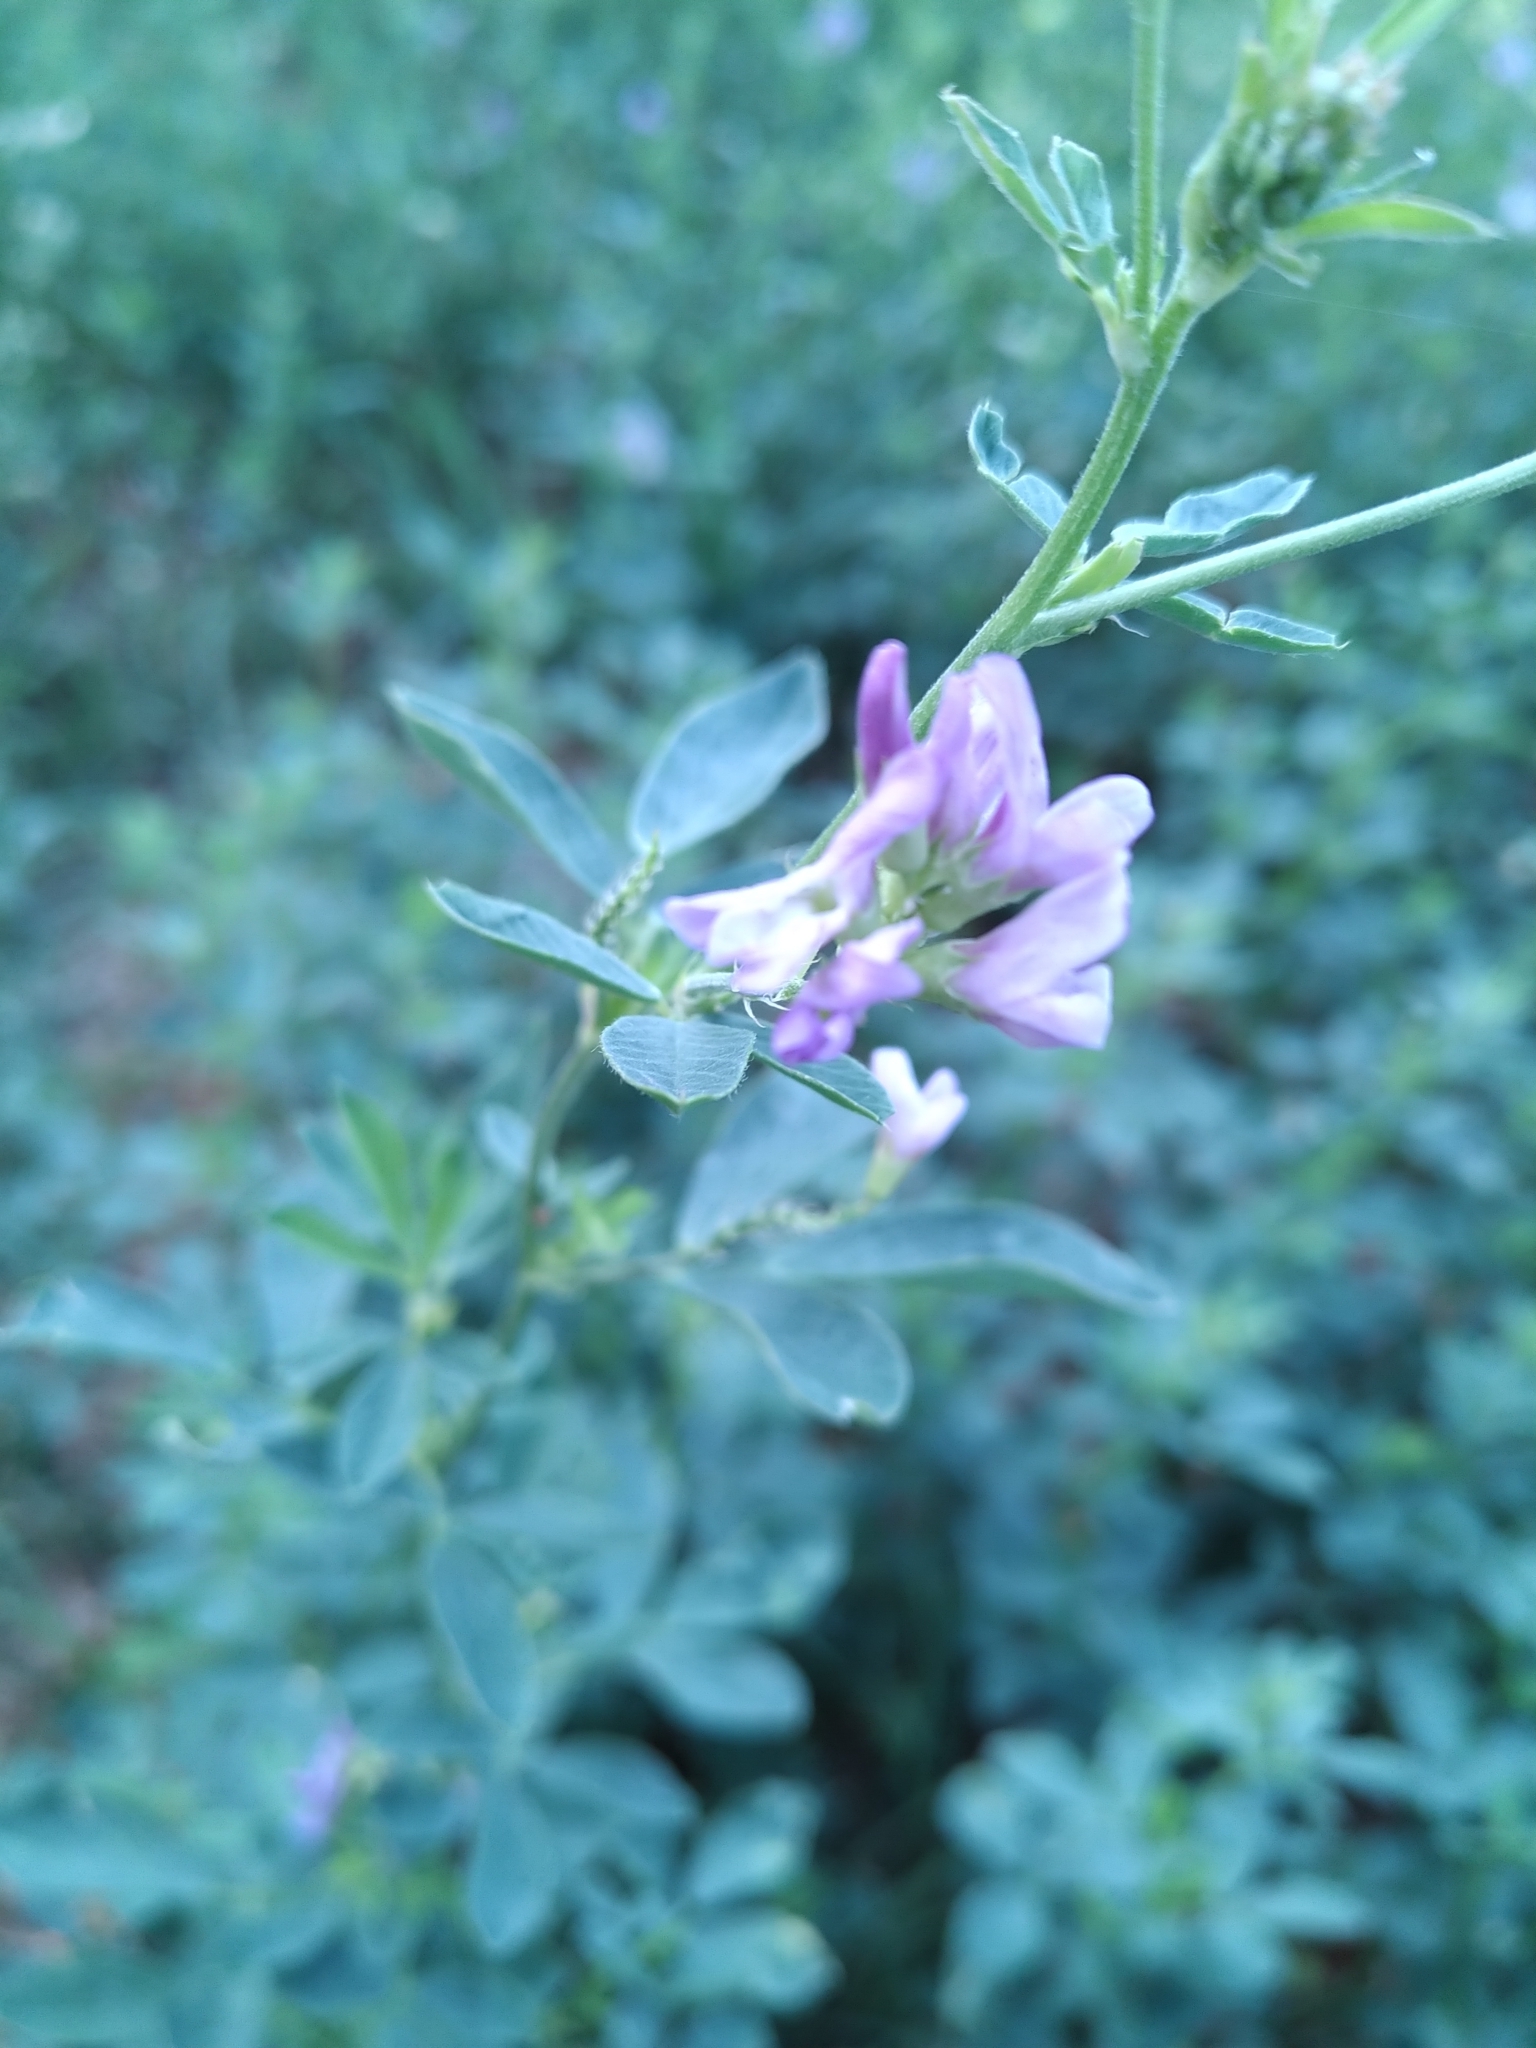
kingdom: Plantae
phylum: Tracheophyta
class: Magnoliopsida
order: Fabales
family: Fabaceae
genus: Medicago
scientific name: Medicago sativa
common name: Alfalfa
